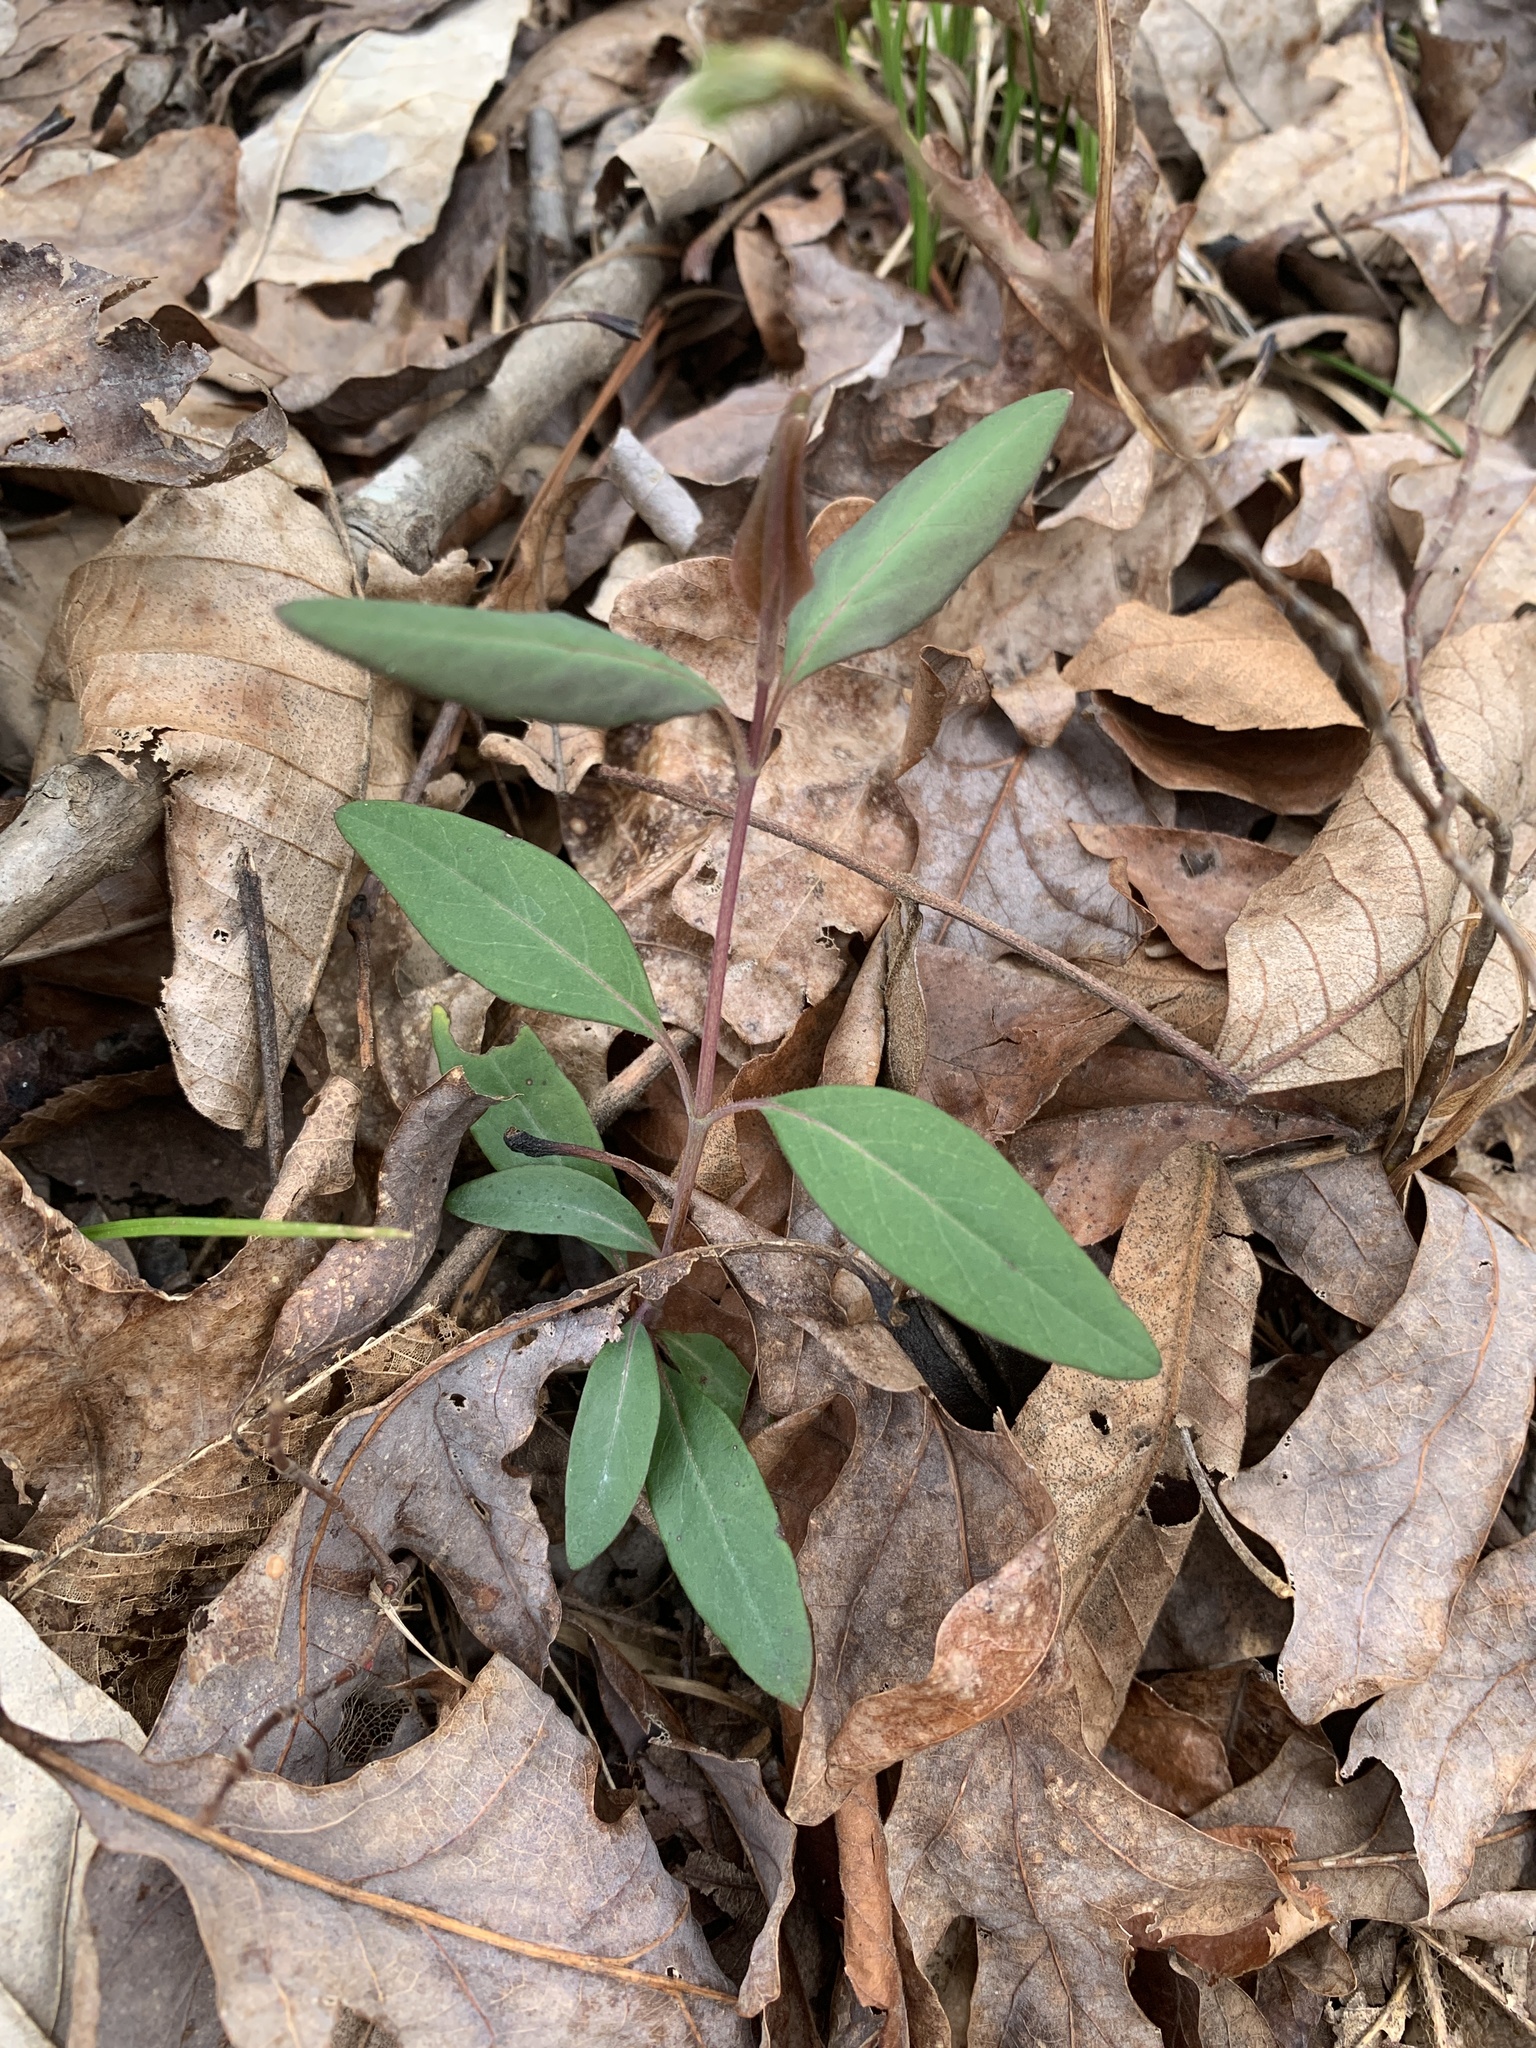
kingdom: Plantae
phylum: Tracheophyta
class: Magnoliopsida
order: Dipsacales
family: Caprifoliaceae
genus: Lonicera
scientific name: Lonicera sempervirens
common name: Coral honeysuckle
